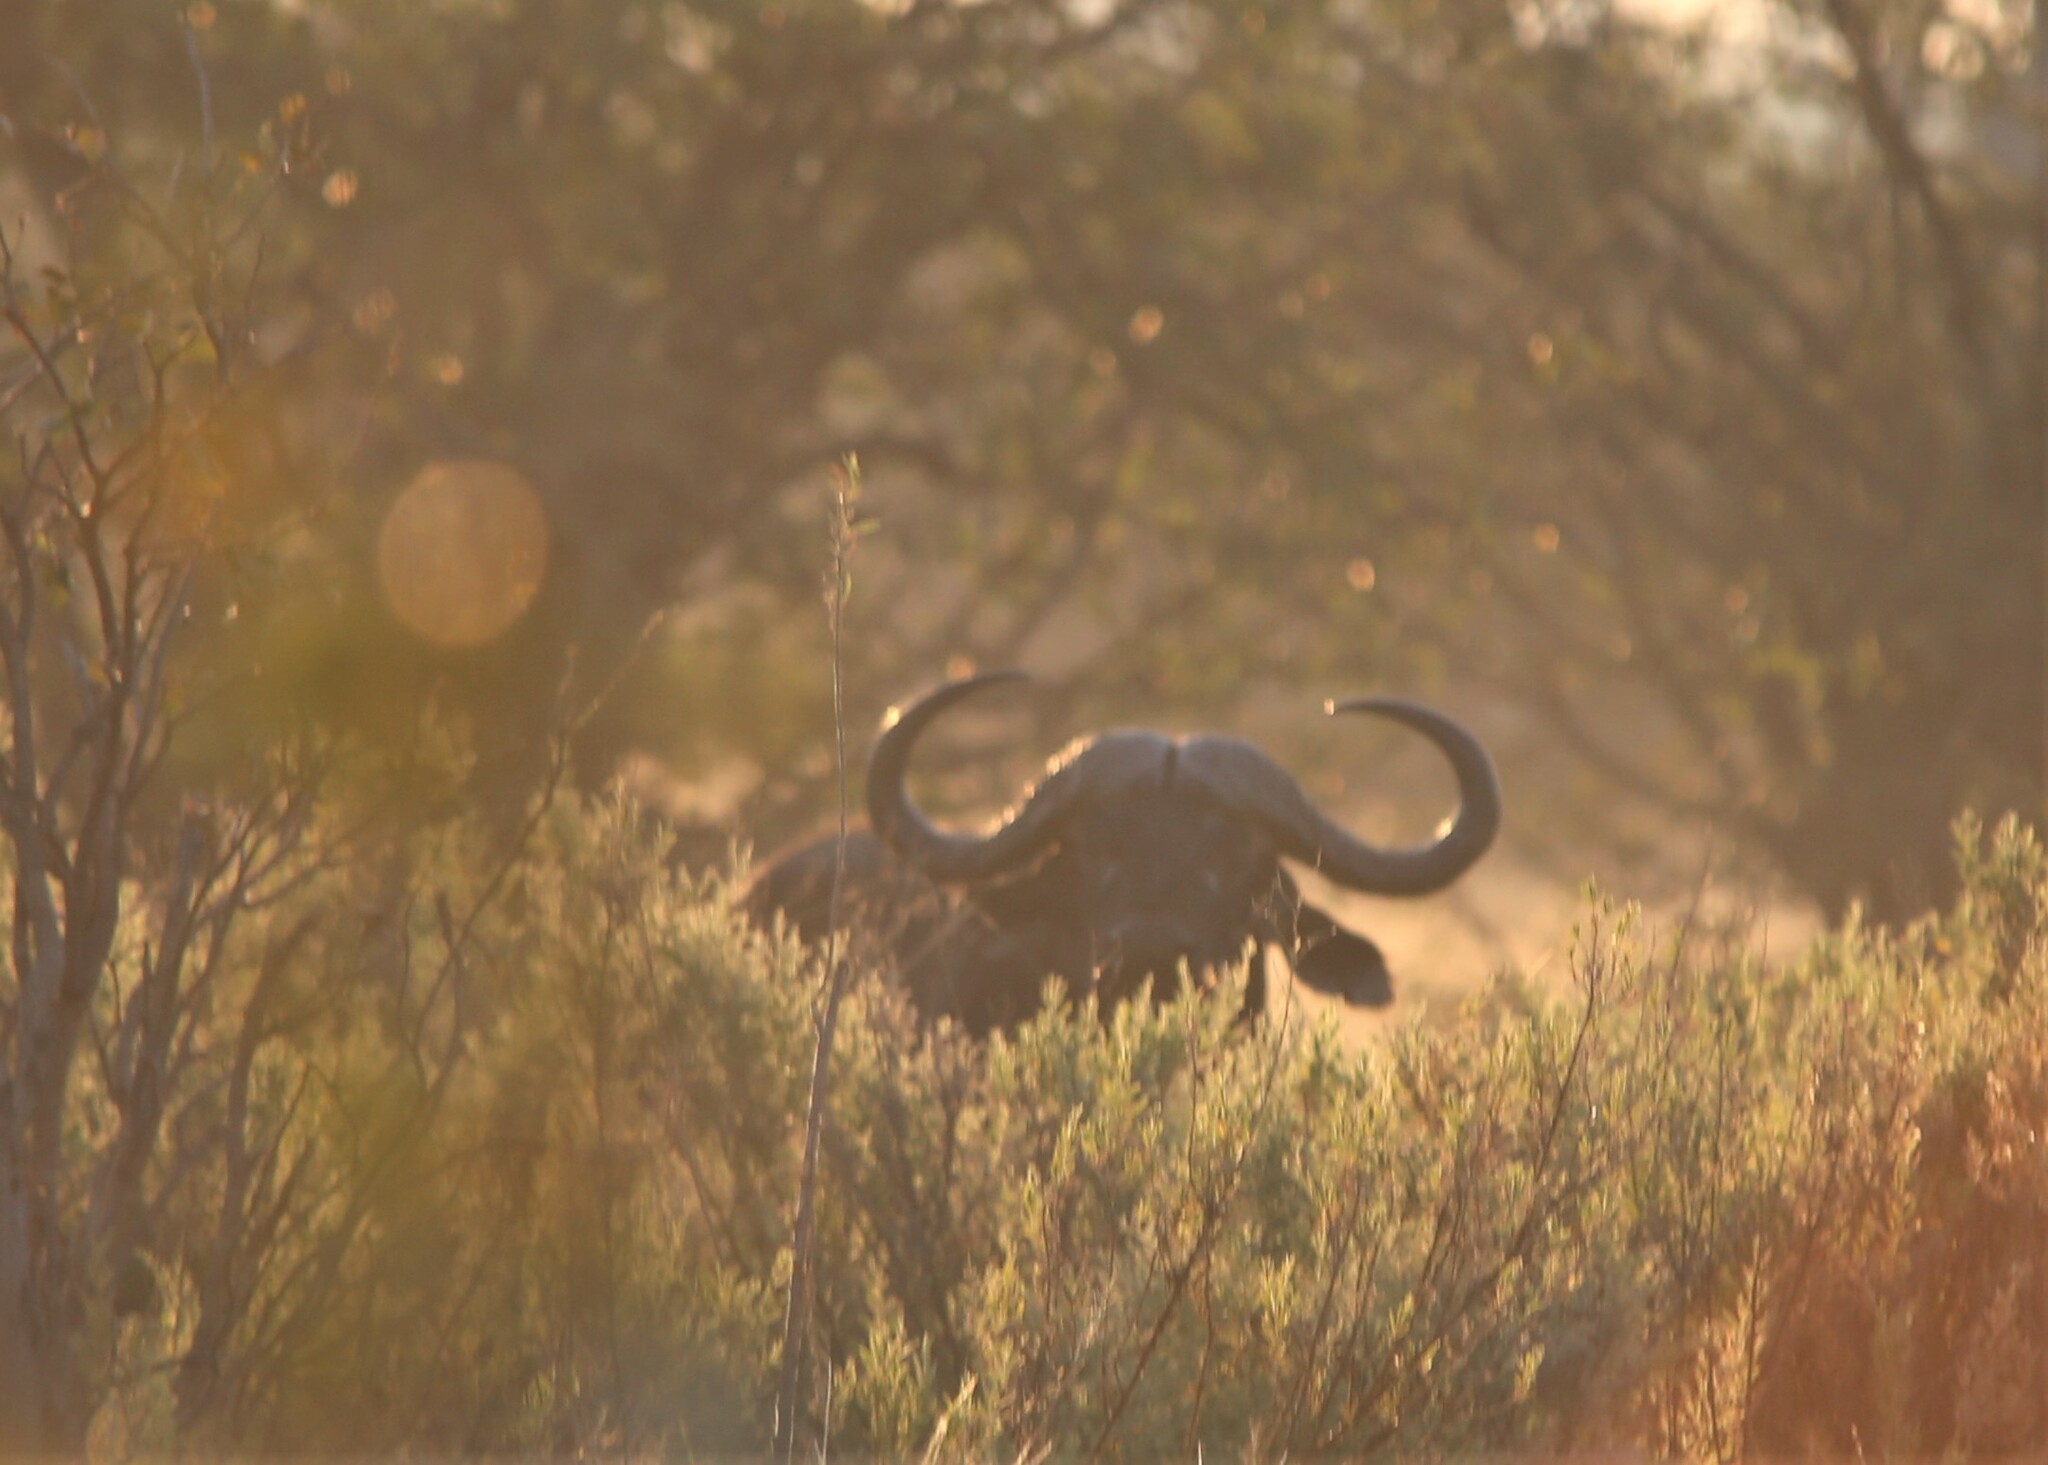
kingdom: Animalia
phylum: Chordata
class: Mammalia
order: Artiodactyla
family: Bovidae
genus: Syncerus
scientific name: Syncerus caffer
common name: African buffalo
